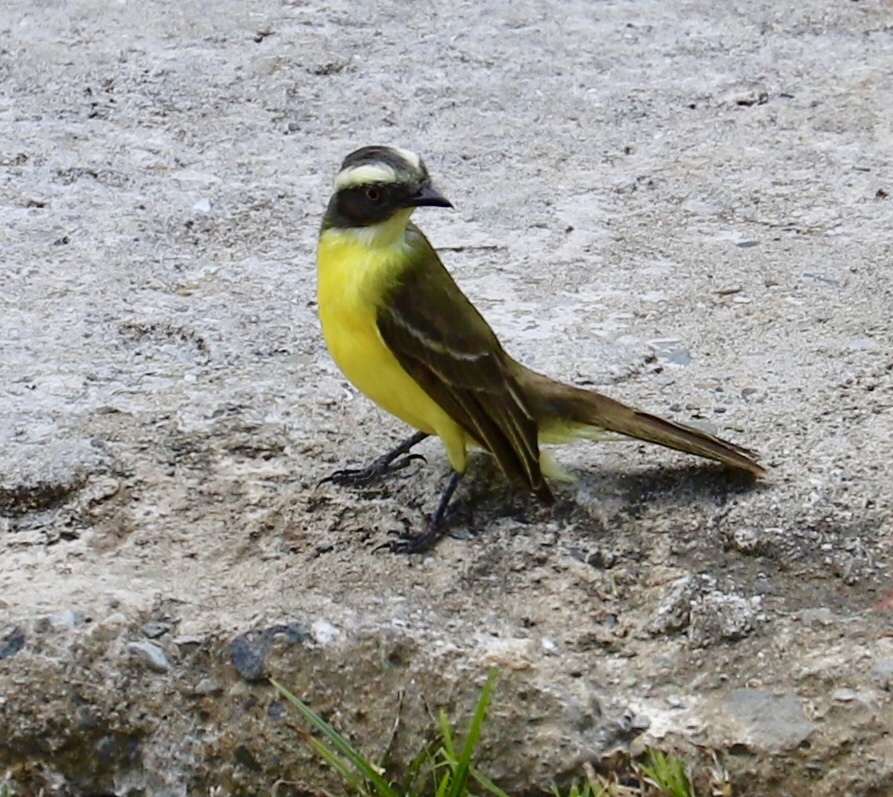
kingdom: Animalia
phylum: Chordata
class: Aves
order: Passeriformes
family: Tyrannidae
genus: Myiozetetes
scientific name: Myiozetetes similis
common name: Social flycatcher
